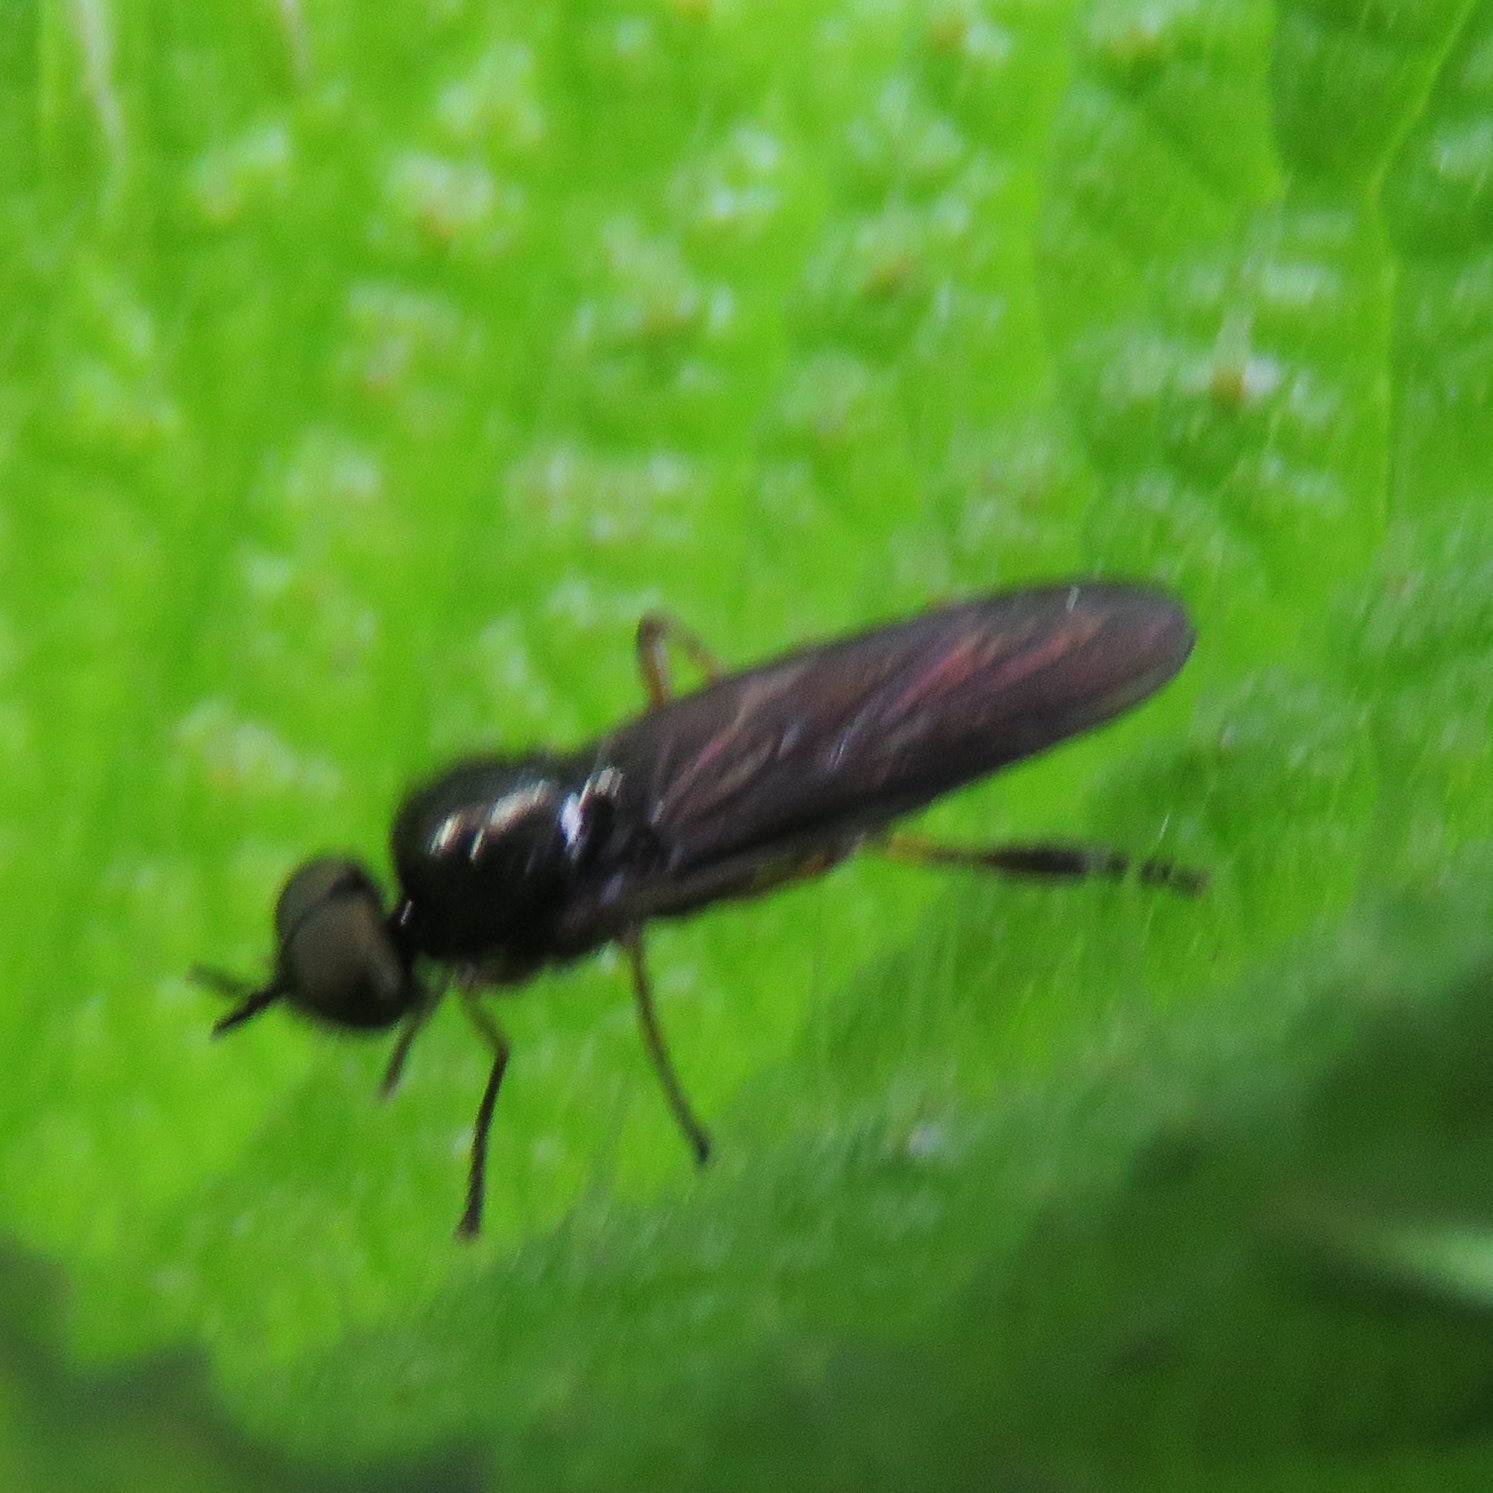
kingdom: Animalia
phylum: Arthropoda
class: Insecta
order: Diptera
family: Stratiomyidae
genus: Beris
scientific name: Beris chalybata
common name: Murky-legged black legionnaire
